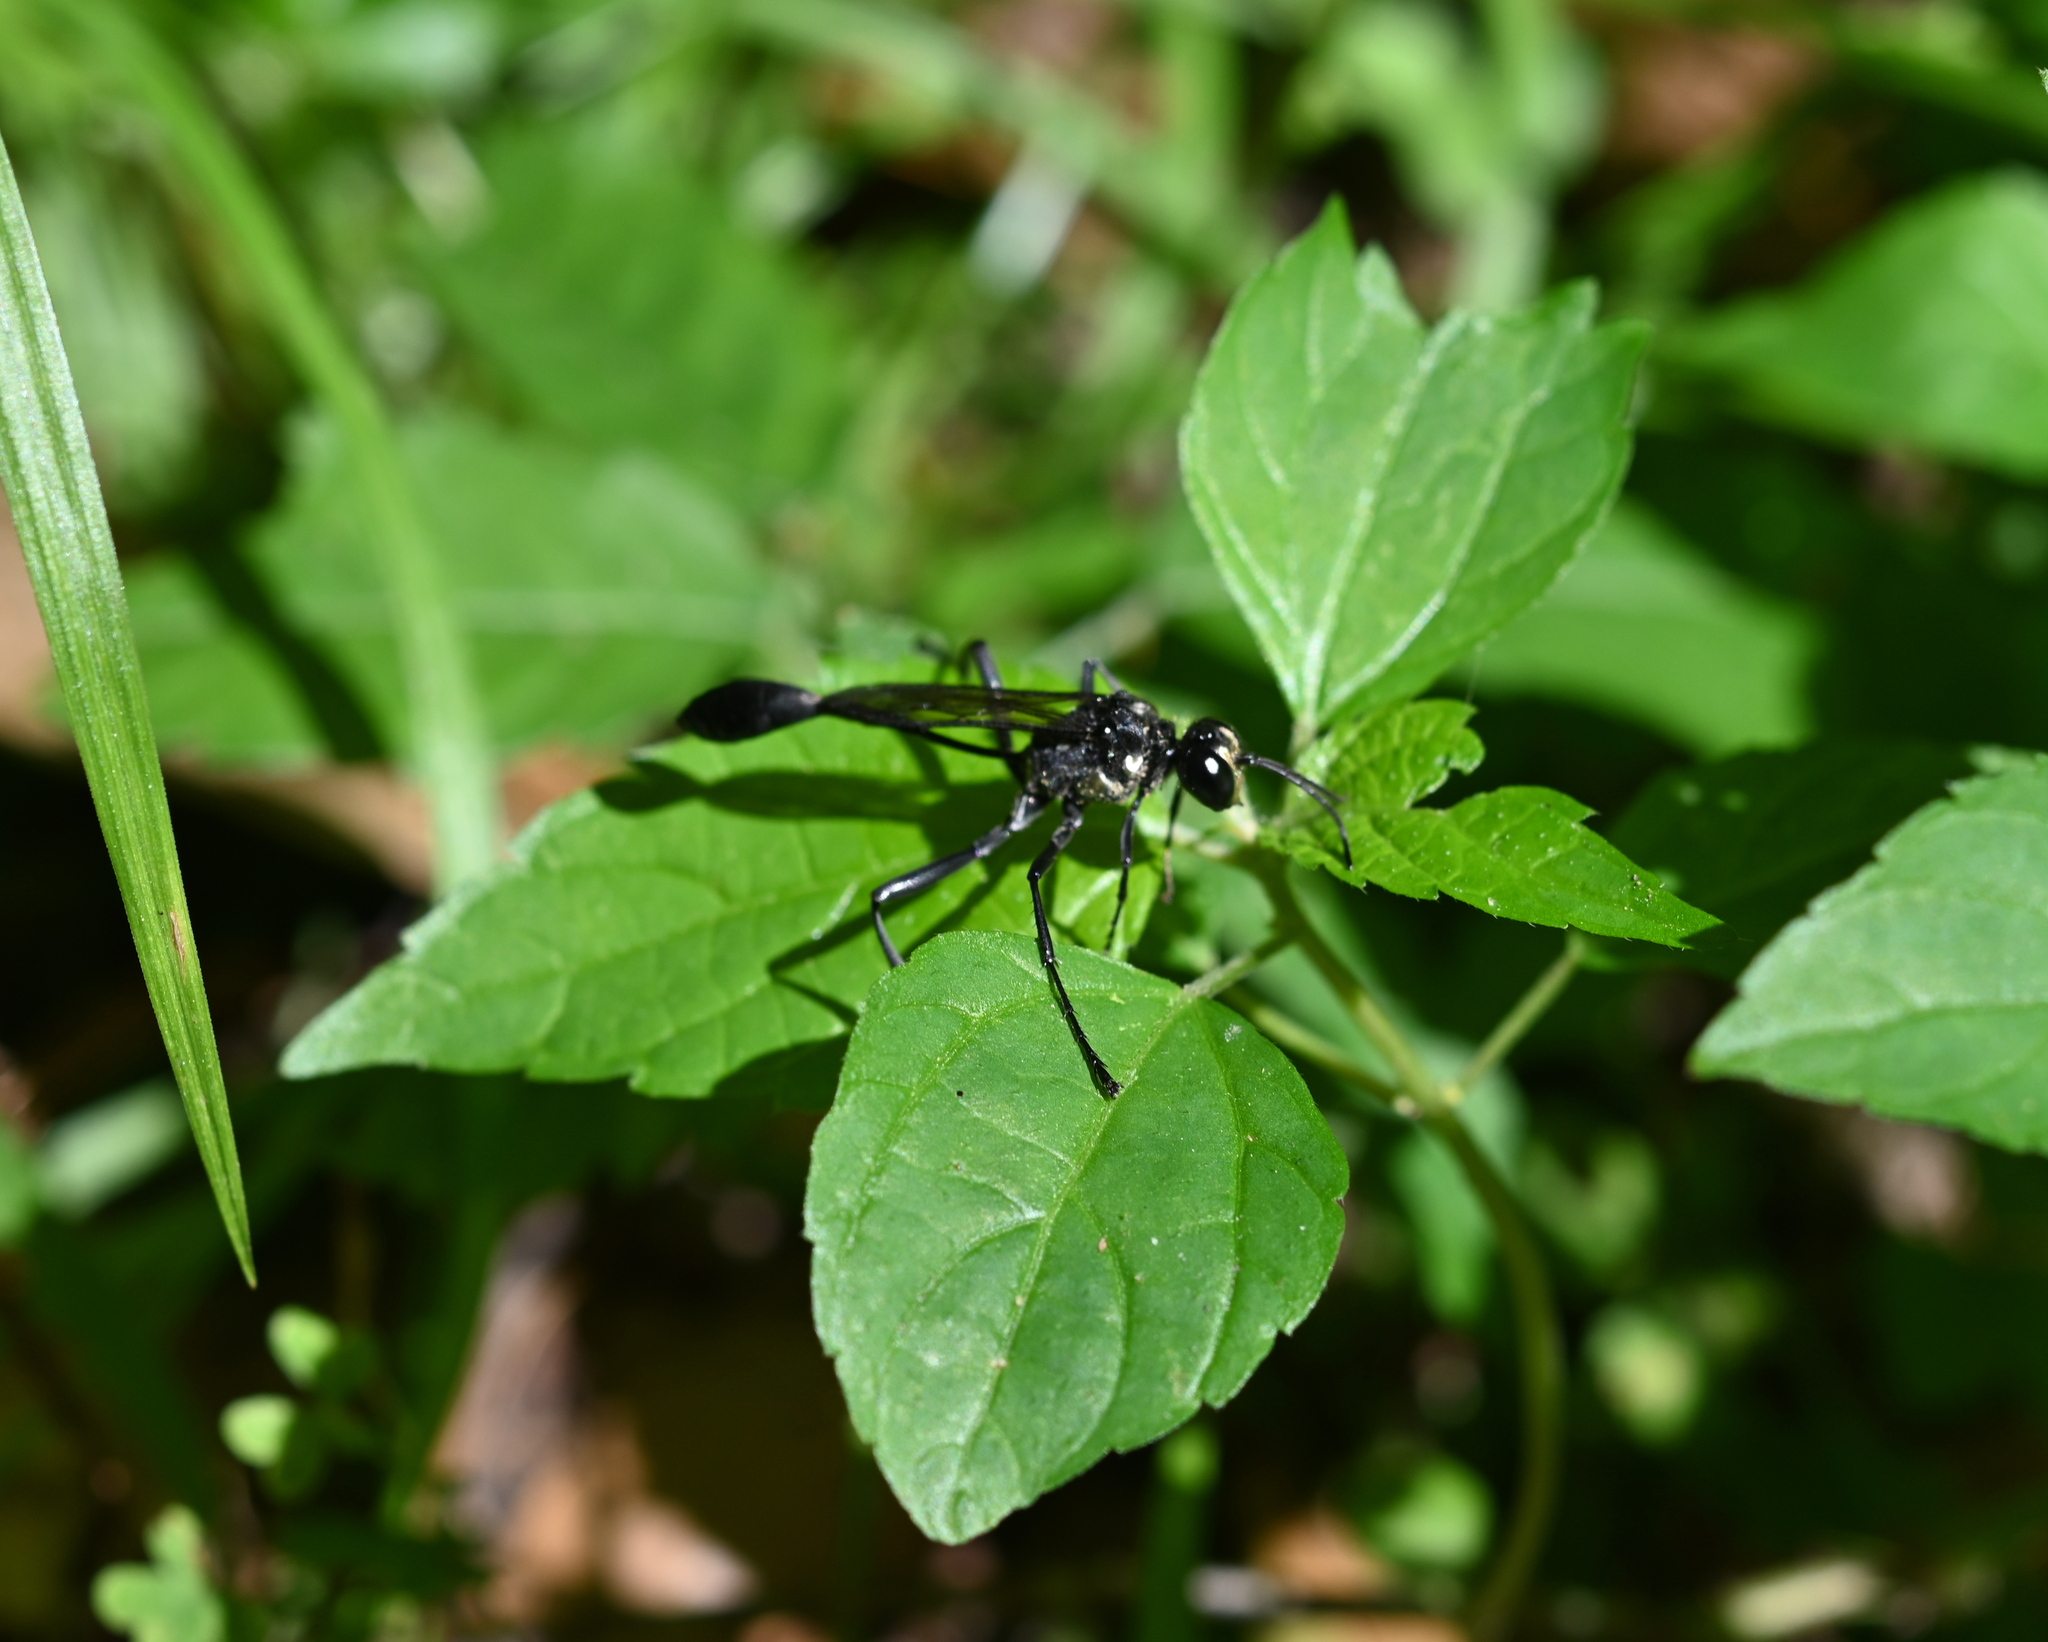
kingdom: Animalia
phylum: Arthropoda
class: Insecta
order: Hymenoptera
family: Sphecidae
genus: Eremnophila
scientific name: Eremnophila aureonotata
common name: Gold-marked thread-waisted wasp
